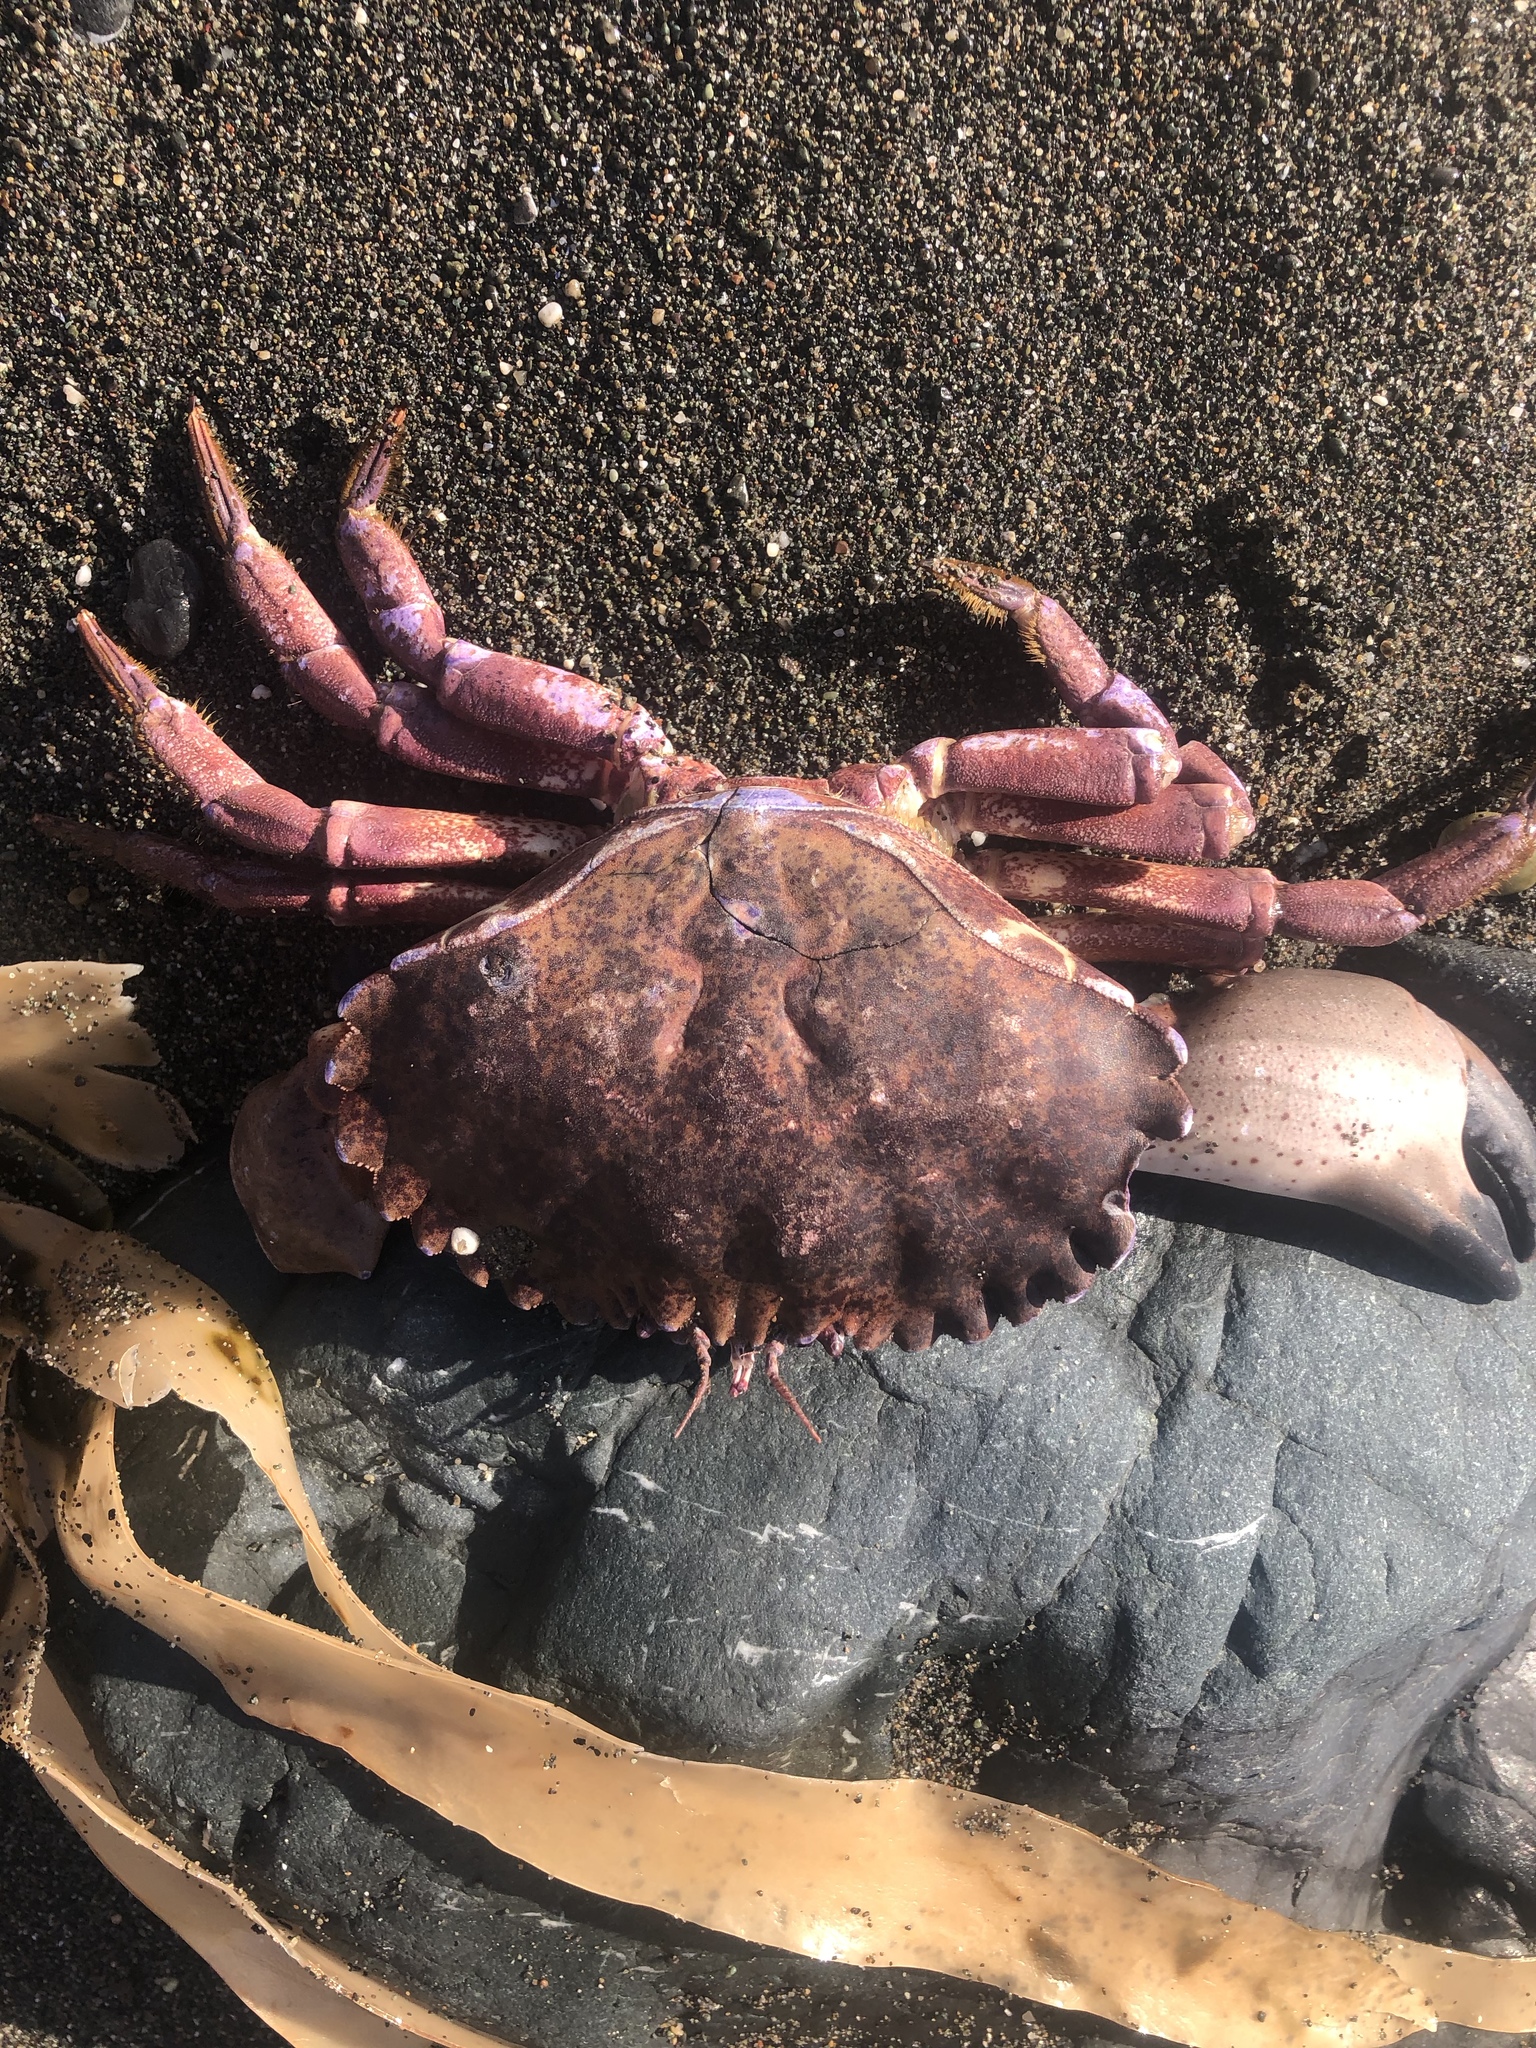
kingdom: Animalia
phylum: Arthropoda
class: Malacostraca
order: Decapoda
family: Cancridae
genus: Romaleon
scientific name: Romaleon antennarium
